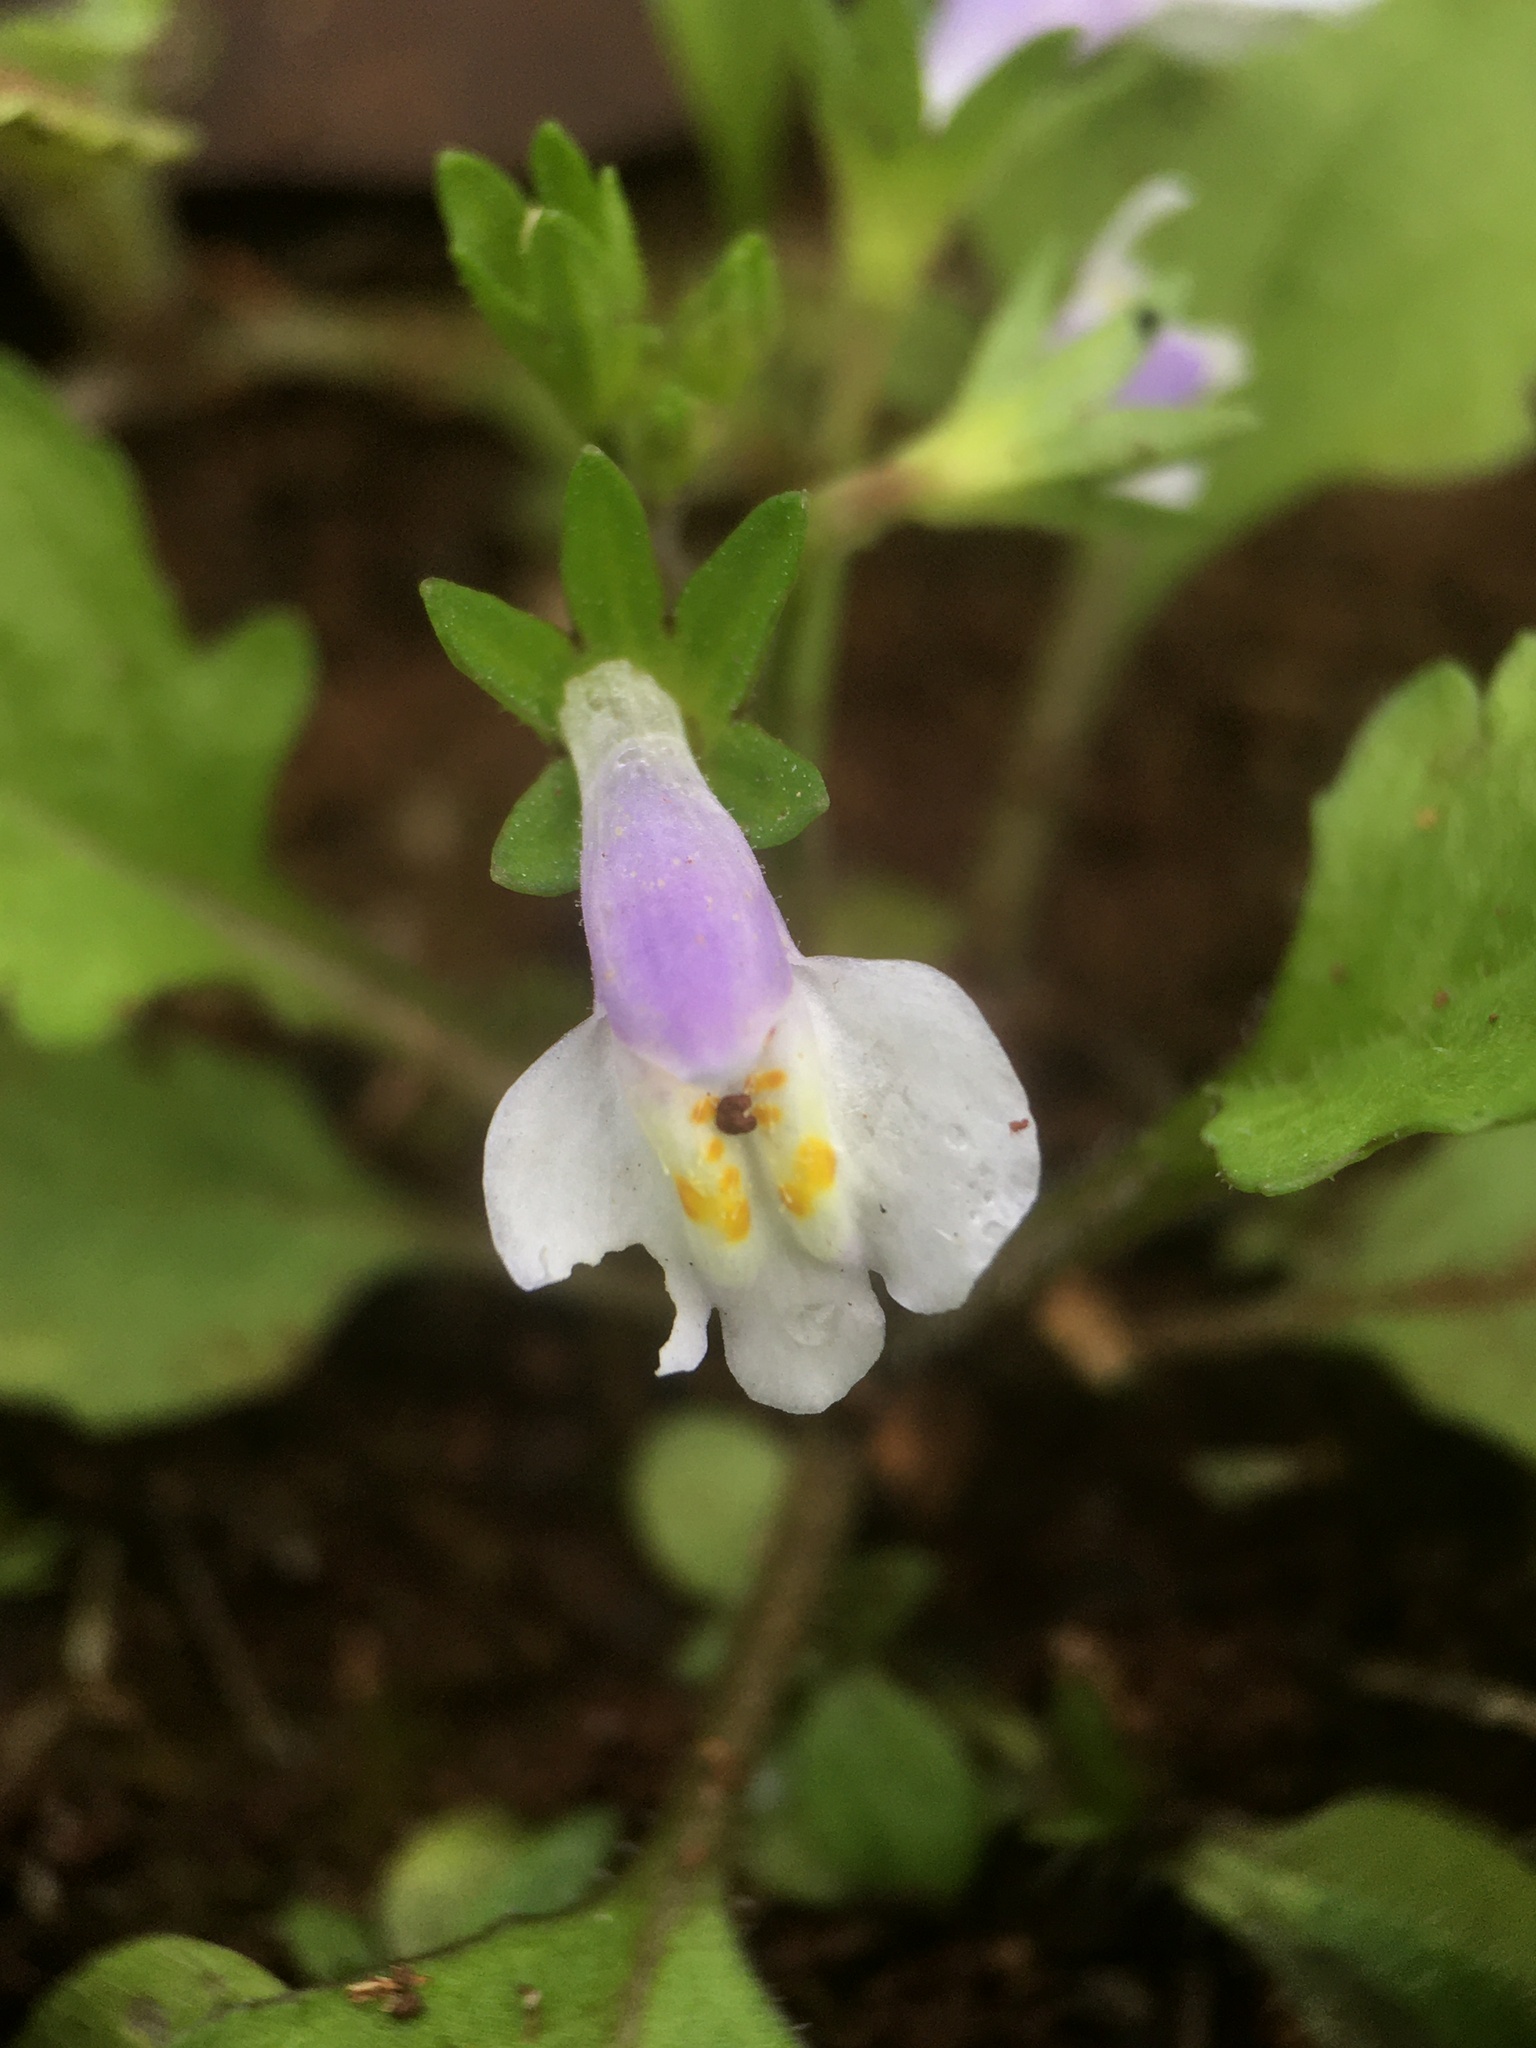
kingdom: Plantae
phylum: Tracheophyta
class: Magnoliopsida
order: Lamiales
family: Mazaceae
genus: Mazus
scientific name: Mazus pumilus
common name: Japanese mazus
